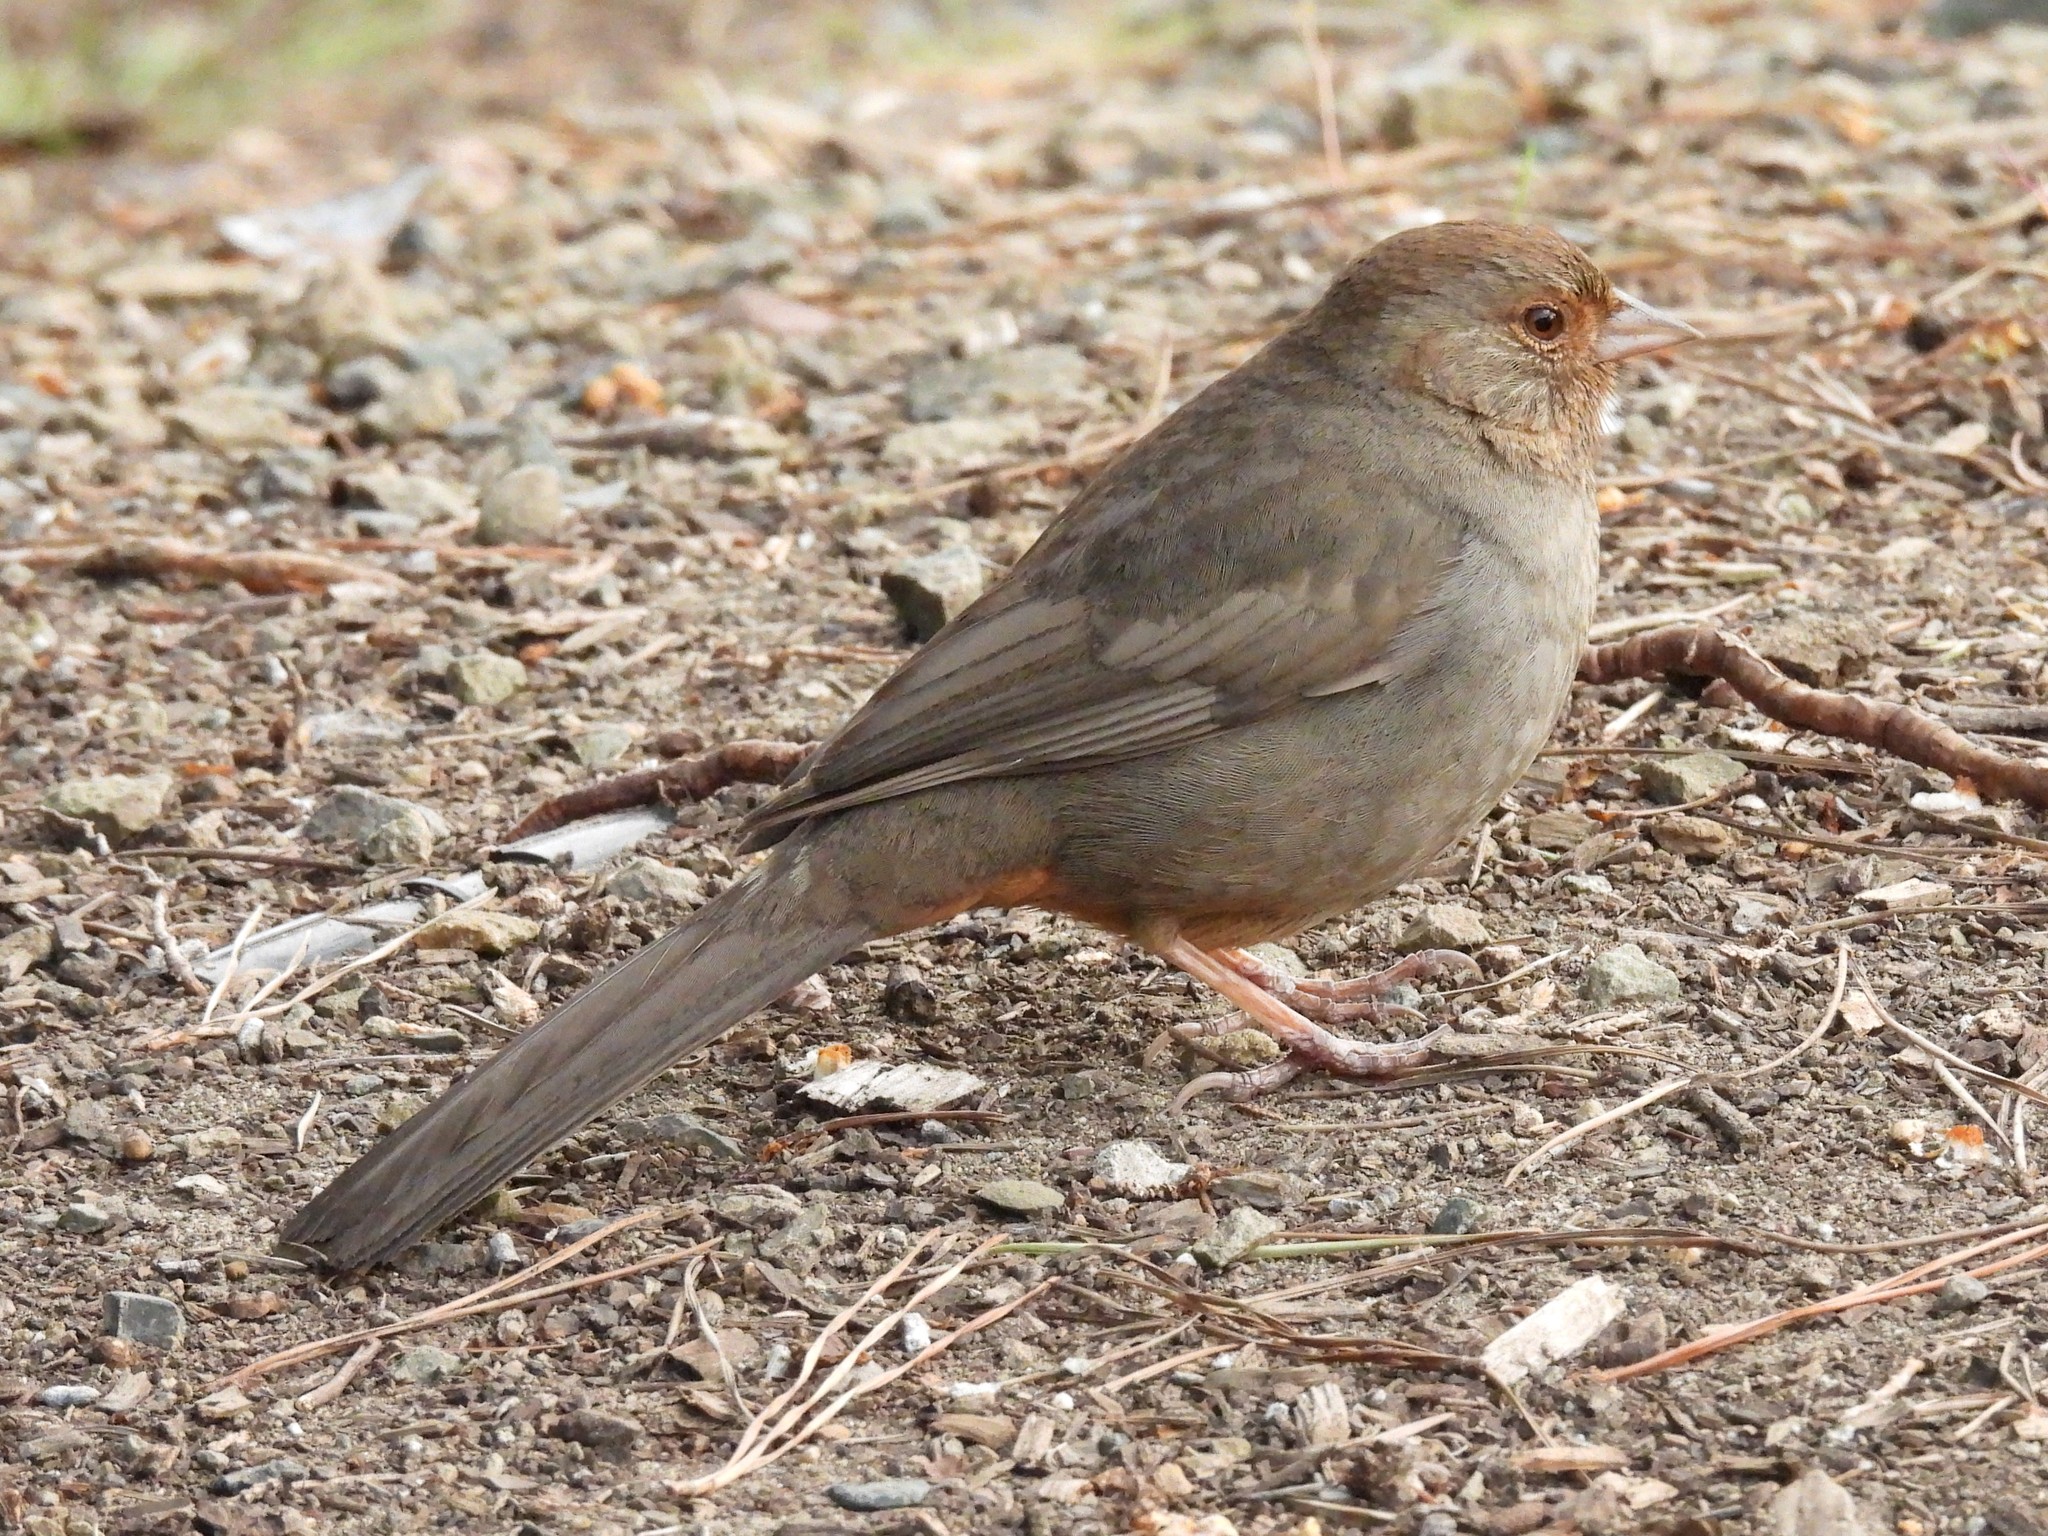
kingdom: Animalia
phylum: Chordata
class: Aves
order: Passeriformes
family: Passerellidae
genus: Melozone
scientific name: Melozone crissalis
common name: California towhee
